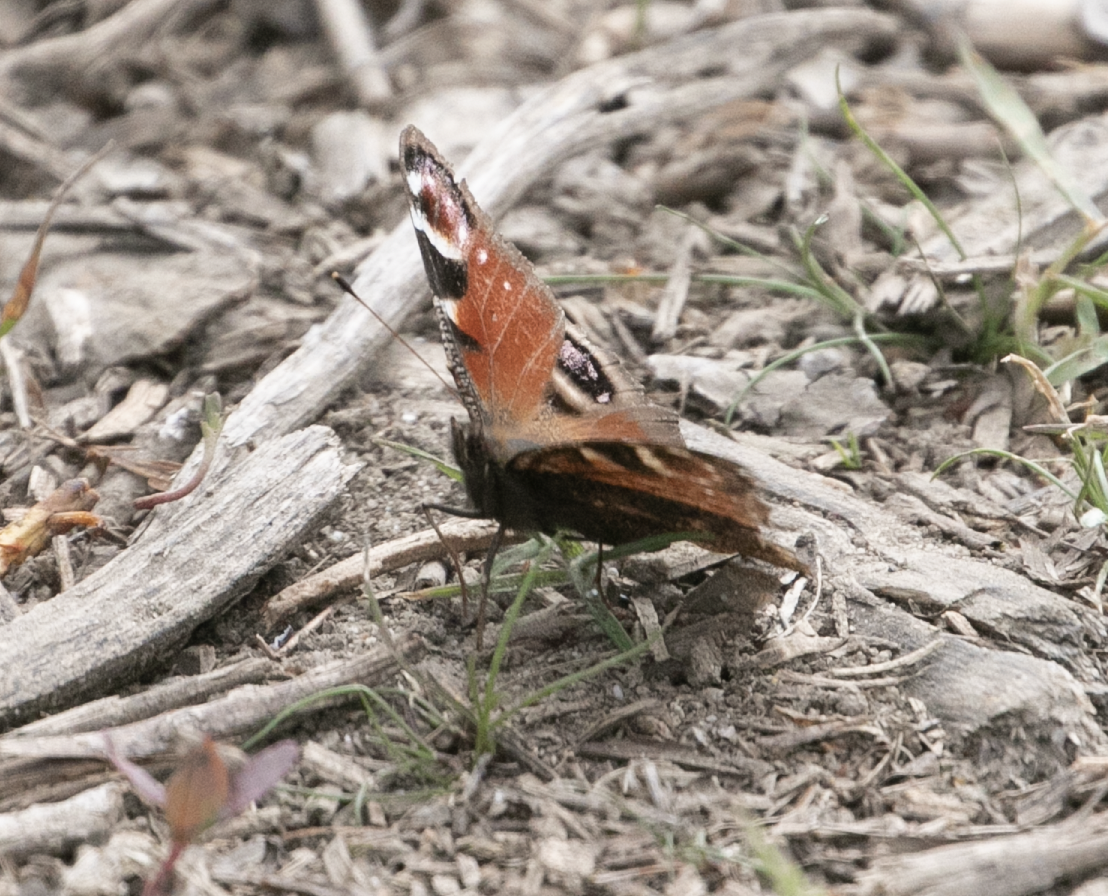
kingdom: Animalia
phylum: Arthropoda
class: Insecta
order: Lepidoptera
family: Nymphalidae
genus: Aglais
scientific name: Aglais io
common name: Peacock
